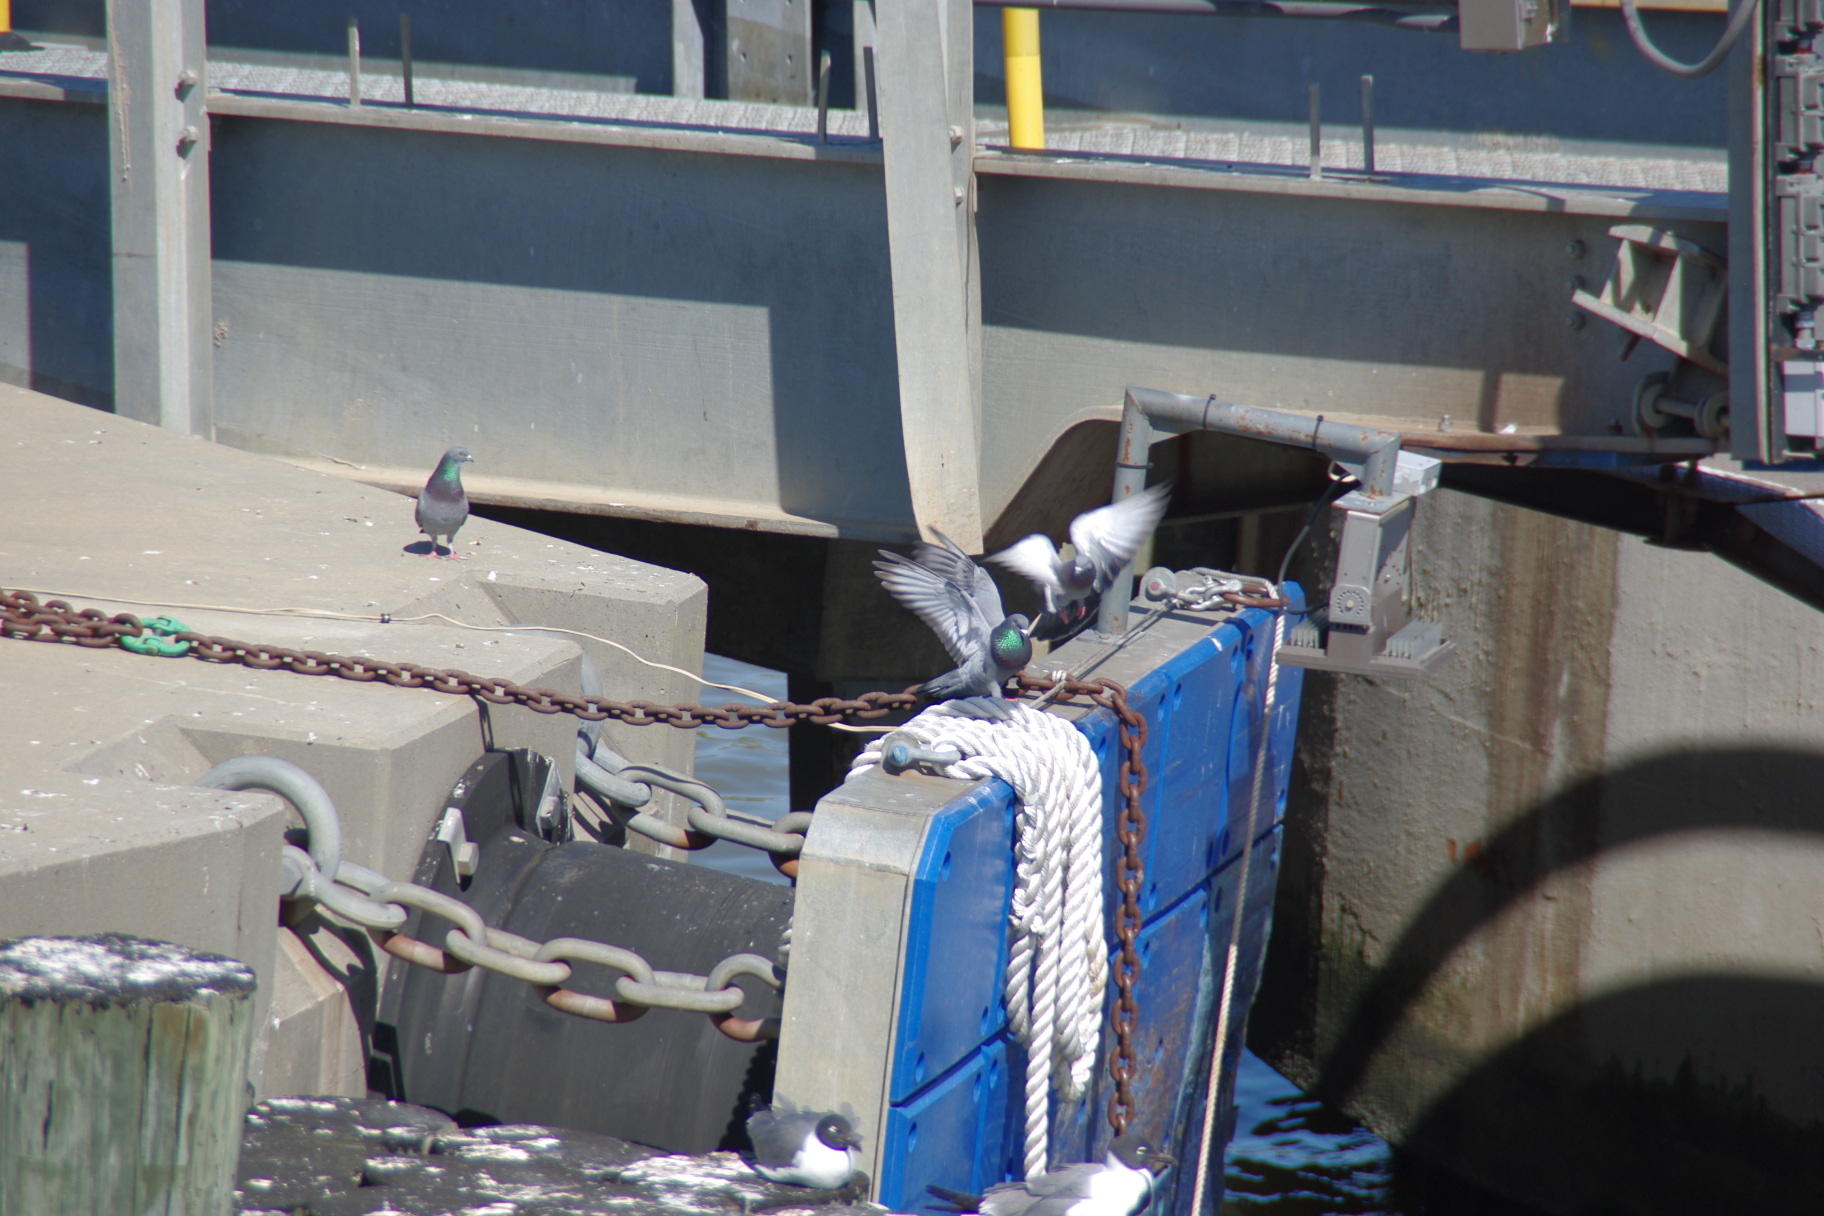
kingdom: Animalia
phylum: Chordata
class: Aves
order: Columbiformes
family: Columbidae
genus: Columba
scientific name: Columba livia
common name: Rock pigeon
